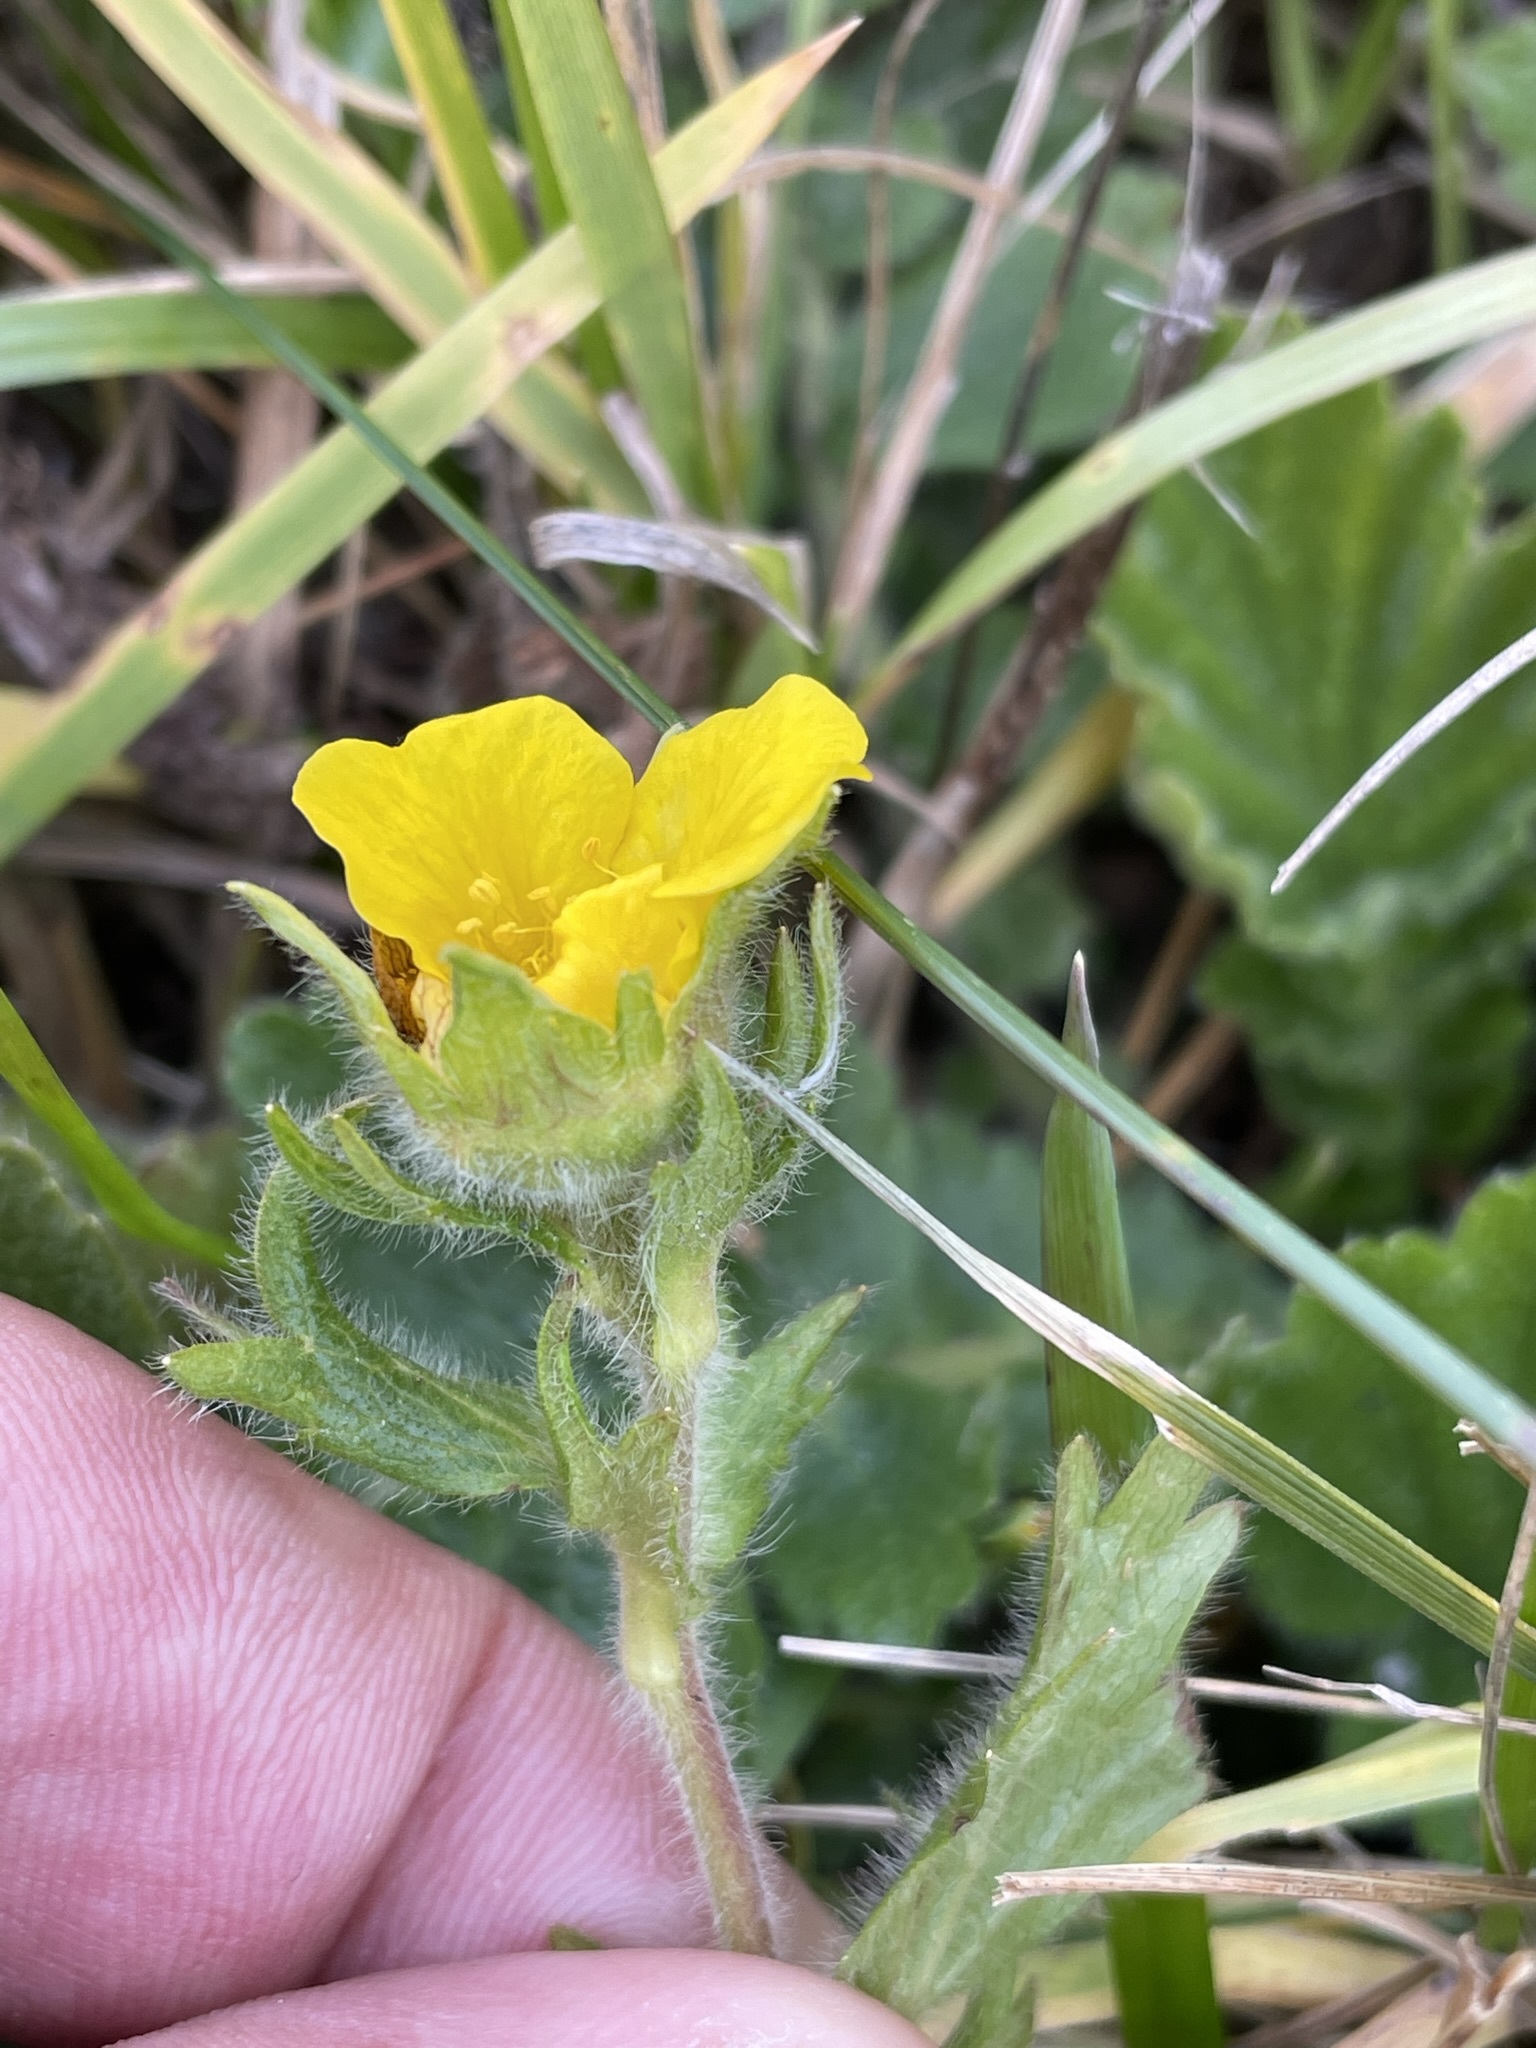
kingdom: Plantae
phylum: Tracheophyta
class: Magnoliopsida
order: Rosales
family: Rosaceae
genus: Geum
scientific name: Geum montanum
